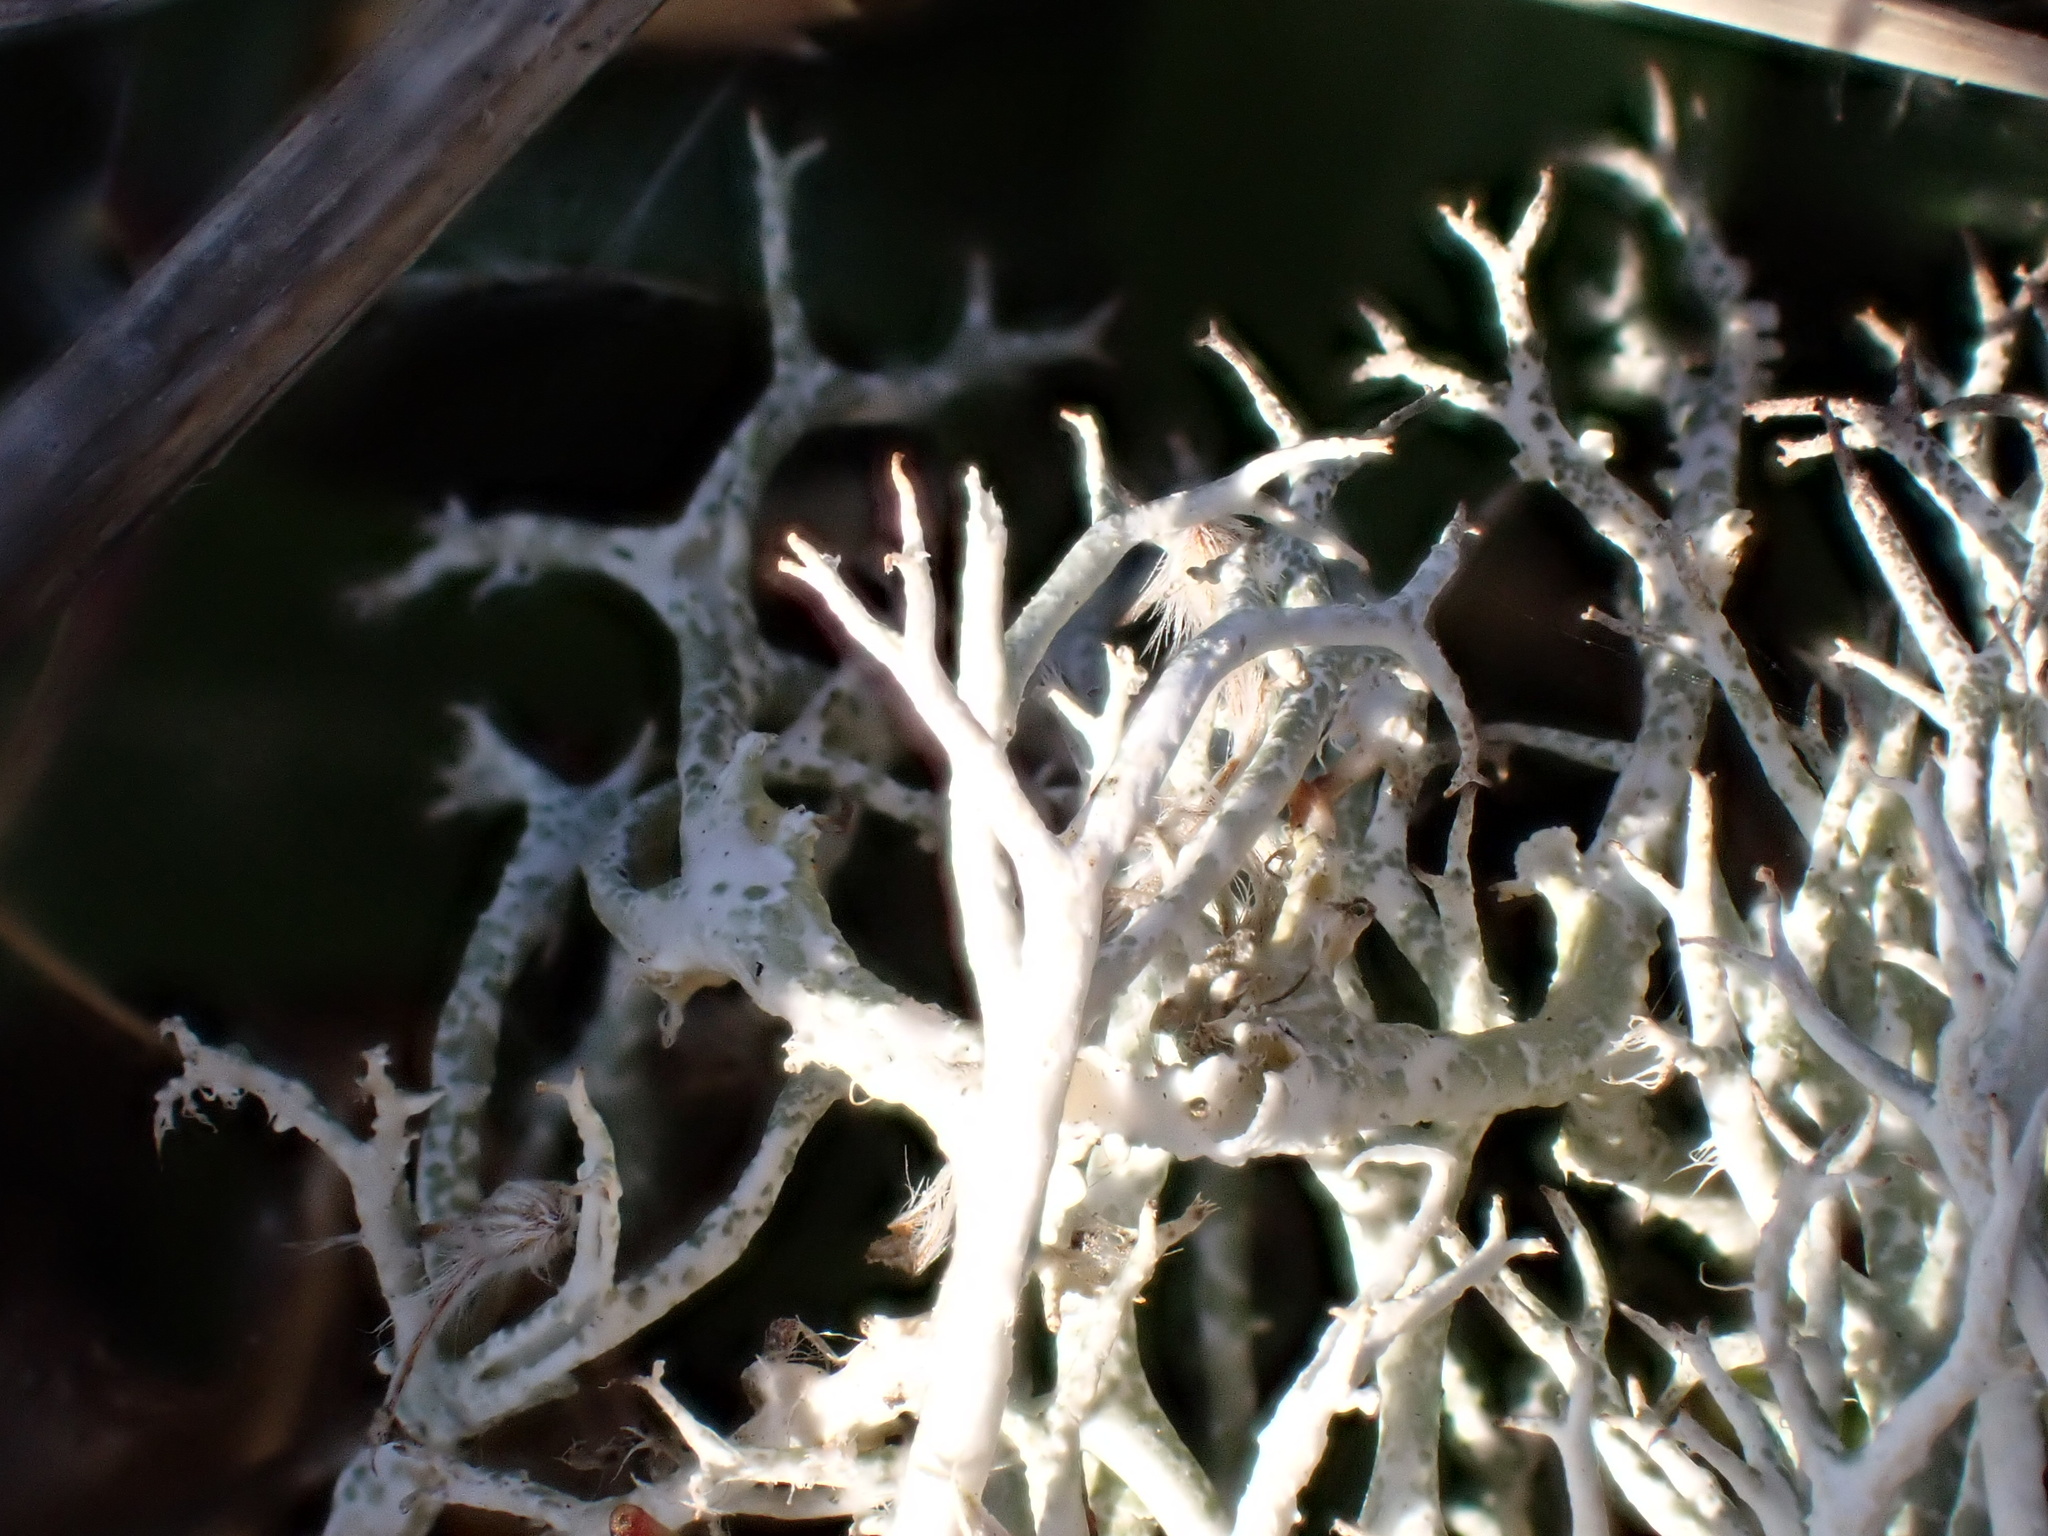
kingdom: Fungi
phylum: Ascomycota
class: Lecanoromycetes
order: Lecanorales
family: Cladoniaceae
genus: Cladonia
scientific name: Cladonia rangiformis
